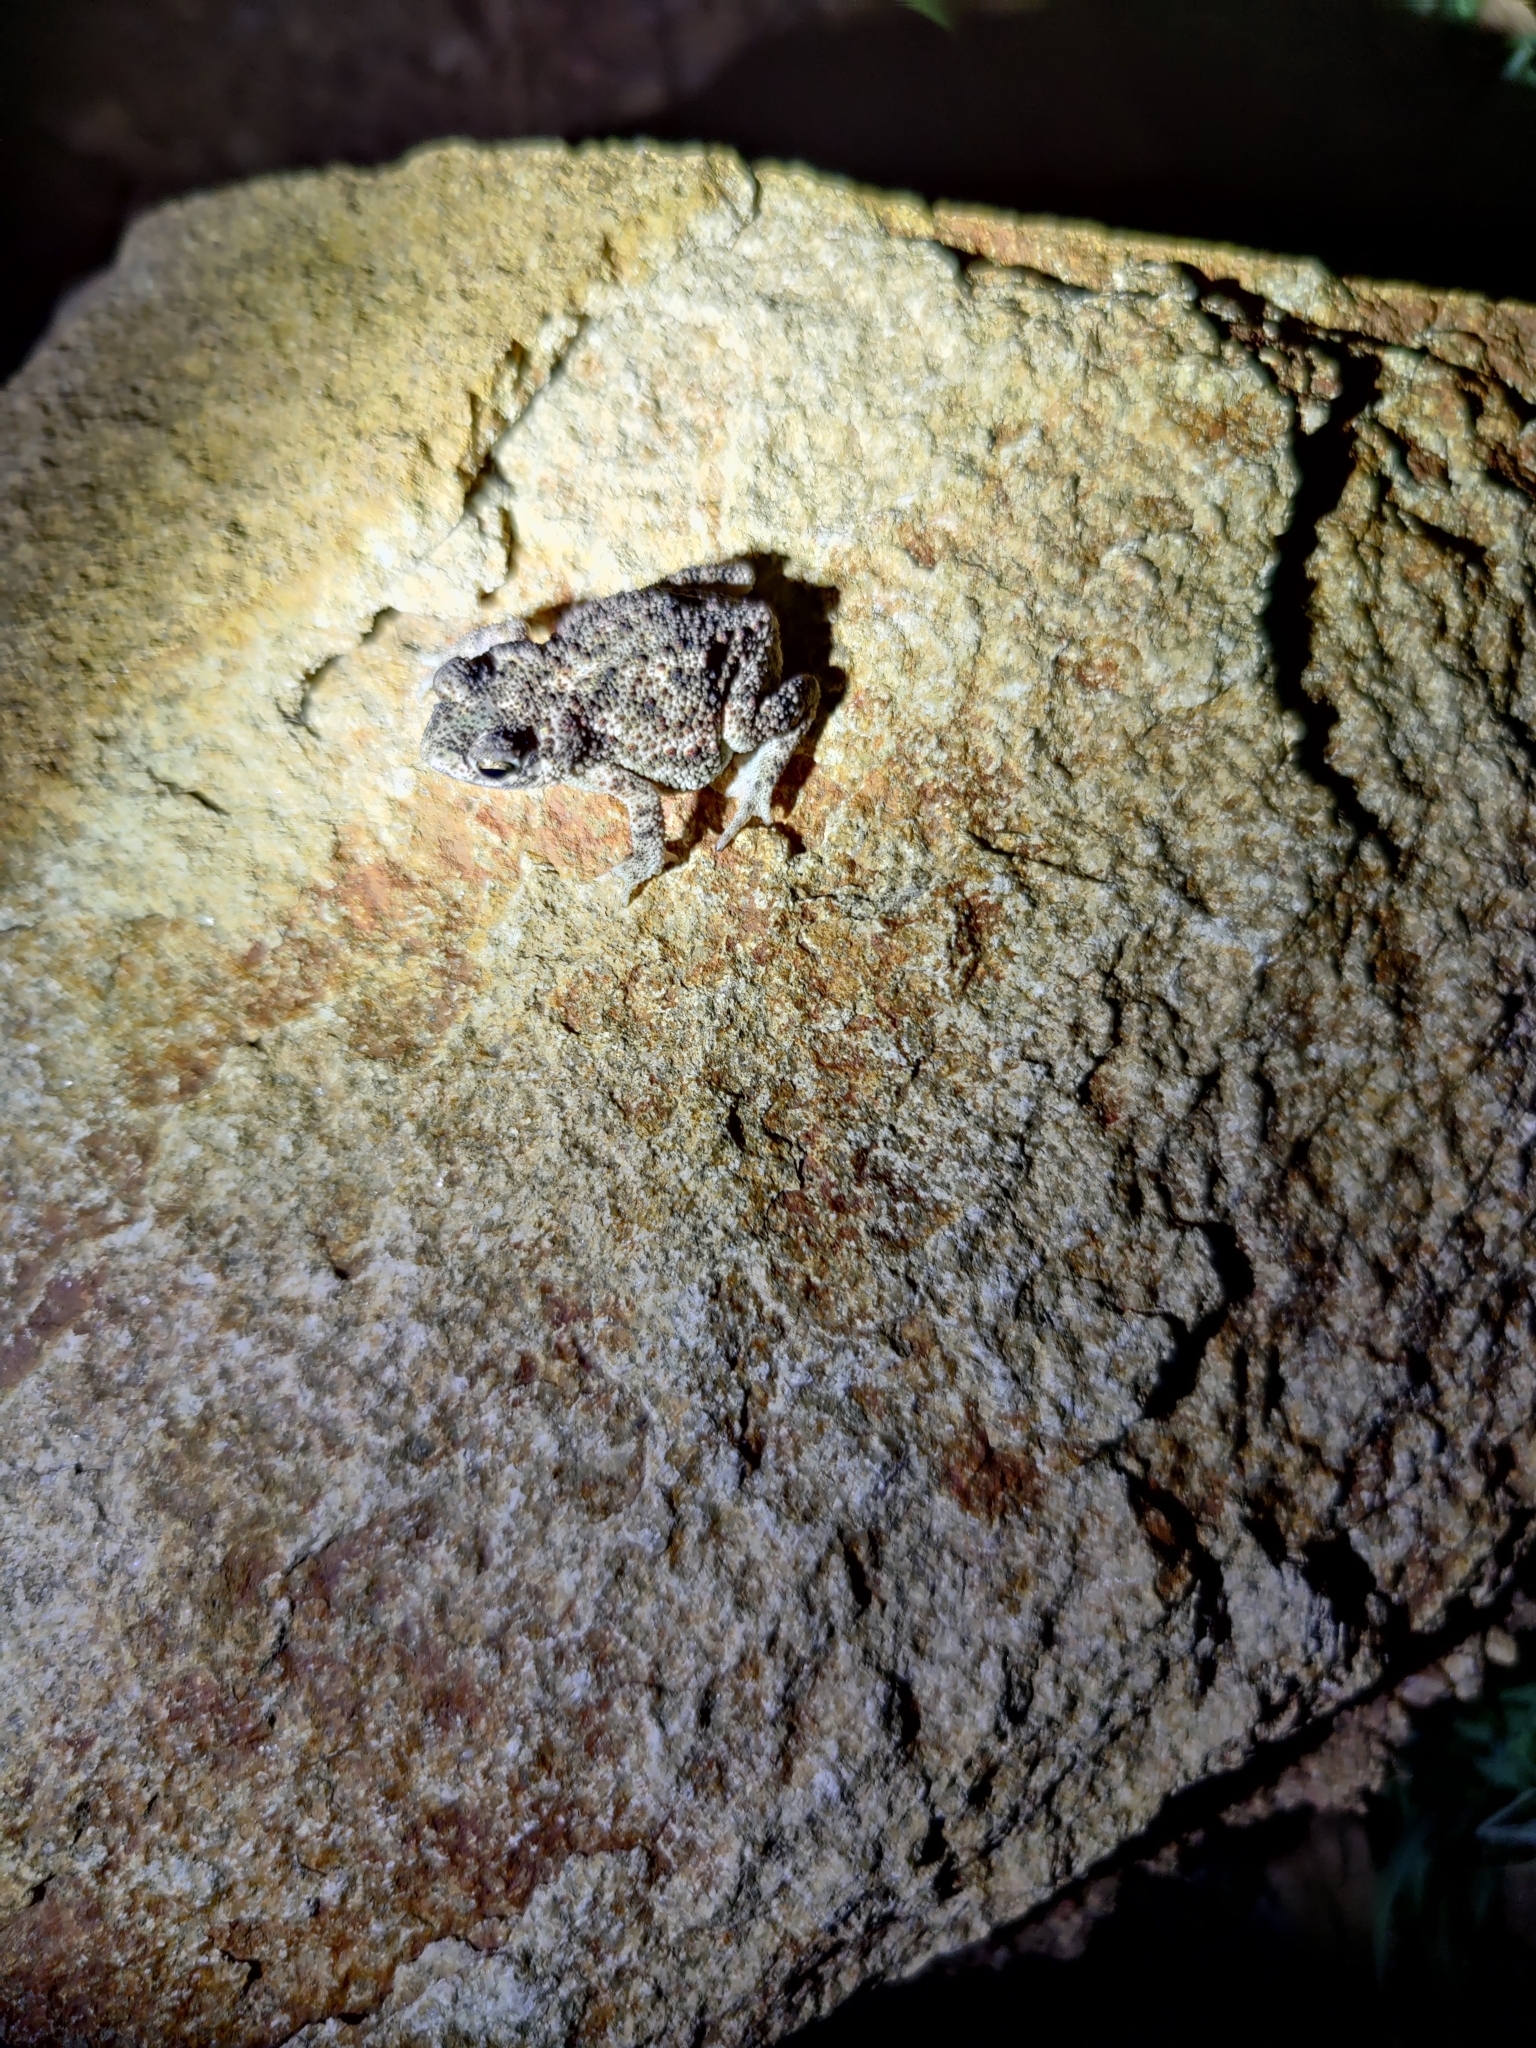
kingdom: Animalia
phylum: Chordata
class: Amphibia
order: Anura
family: Bufonidae
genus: Duttaphrynus
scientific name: Duttaphrynus scaber
